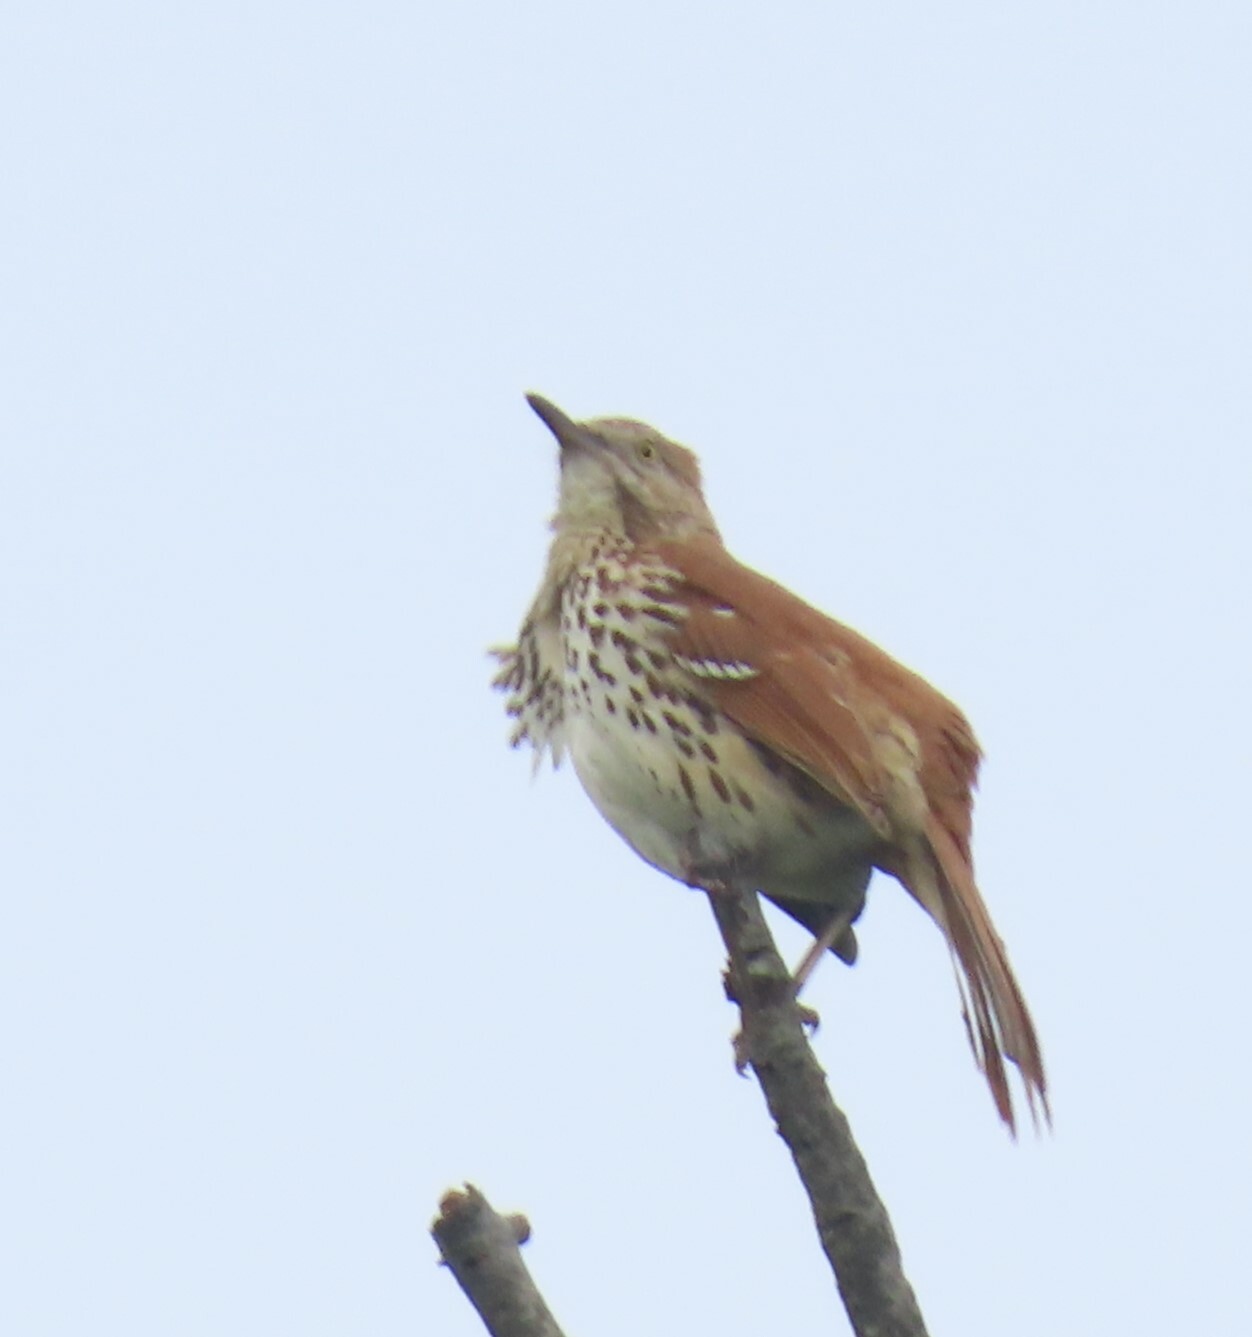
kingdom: Animalia
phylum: Chordata
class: Aves
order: Passeriformes
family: Mimidae
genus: Toxostoma
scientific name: Toxostoma rufum
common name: Brown thrasher
